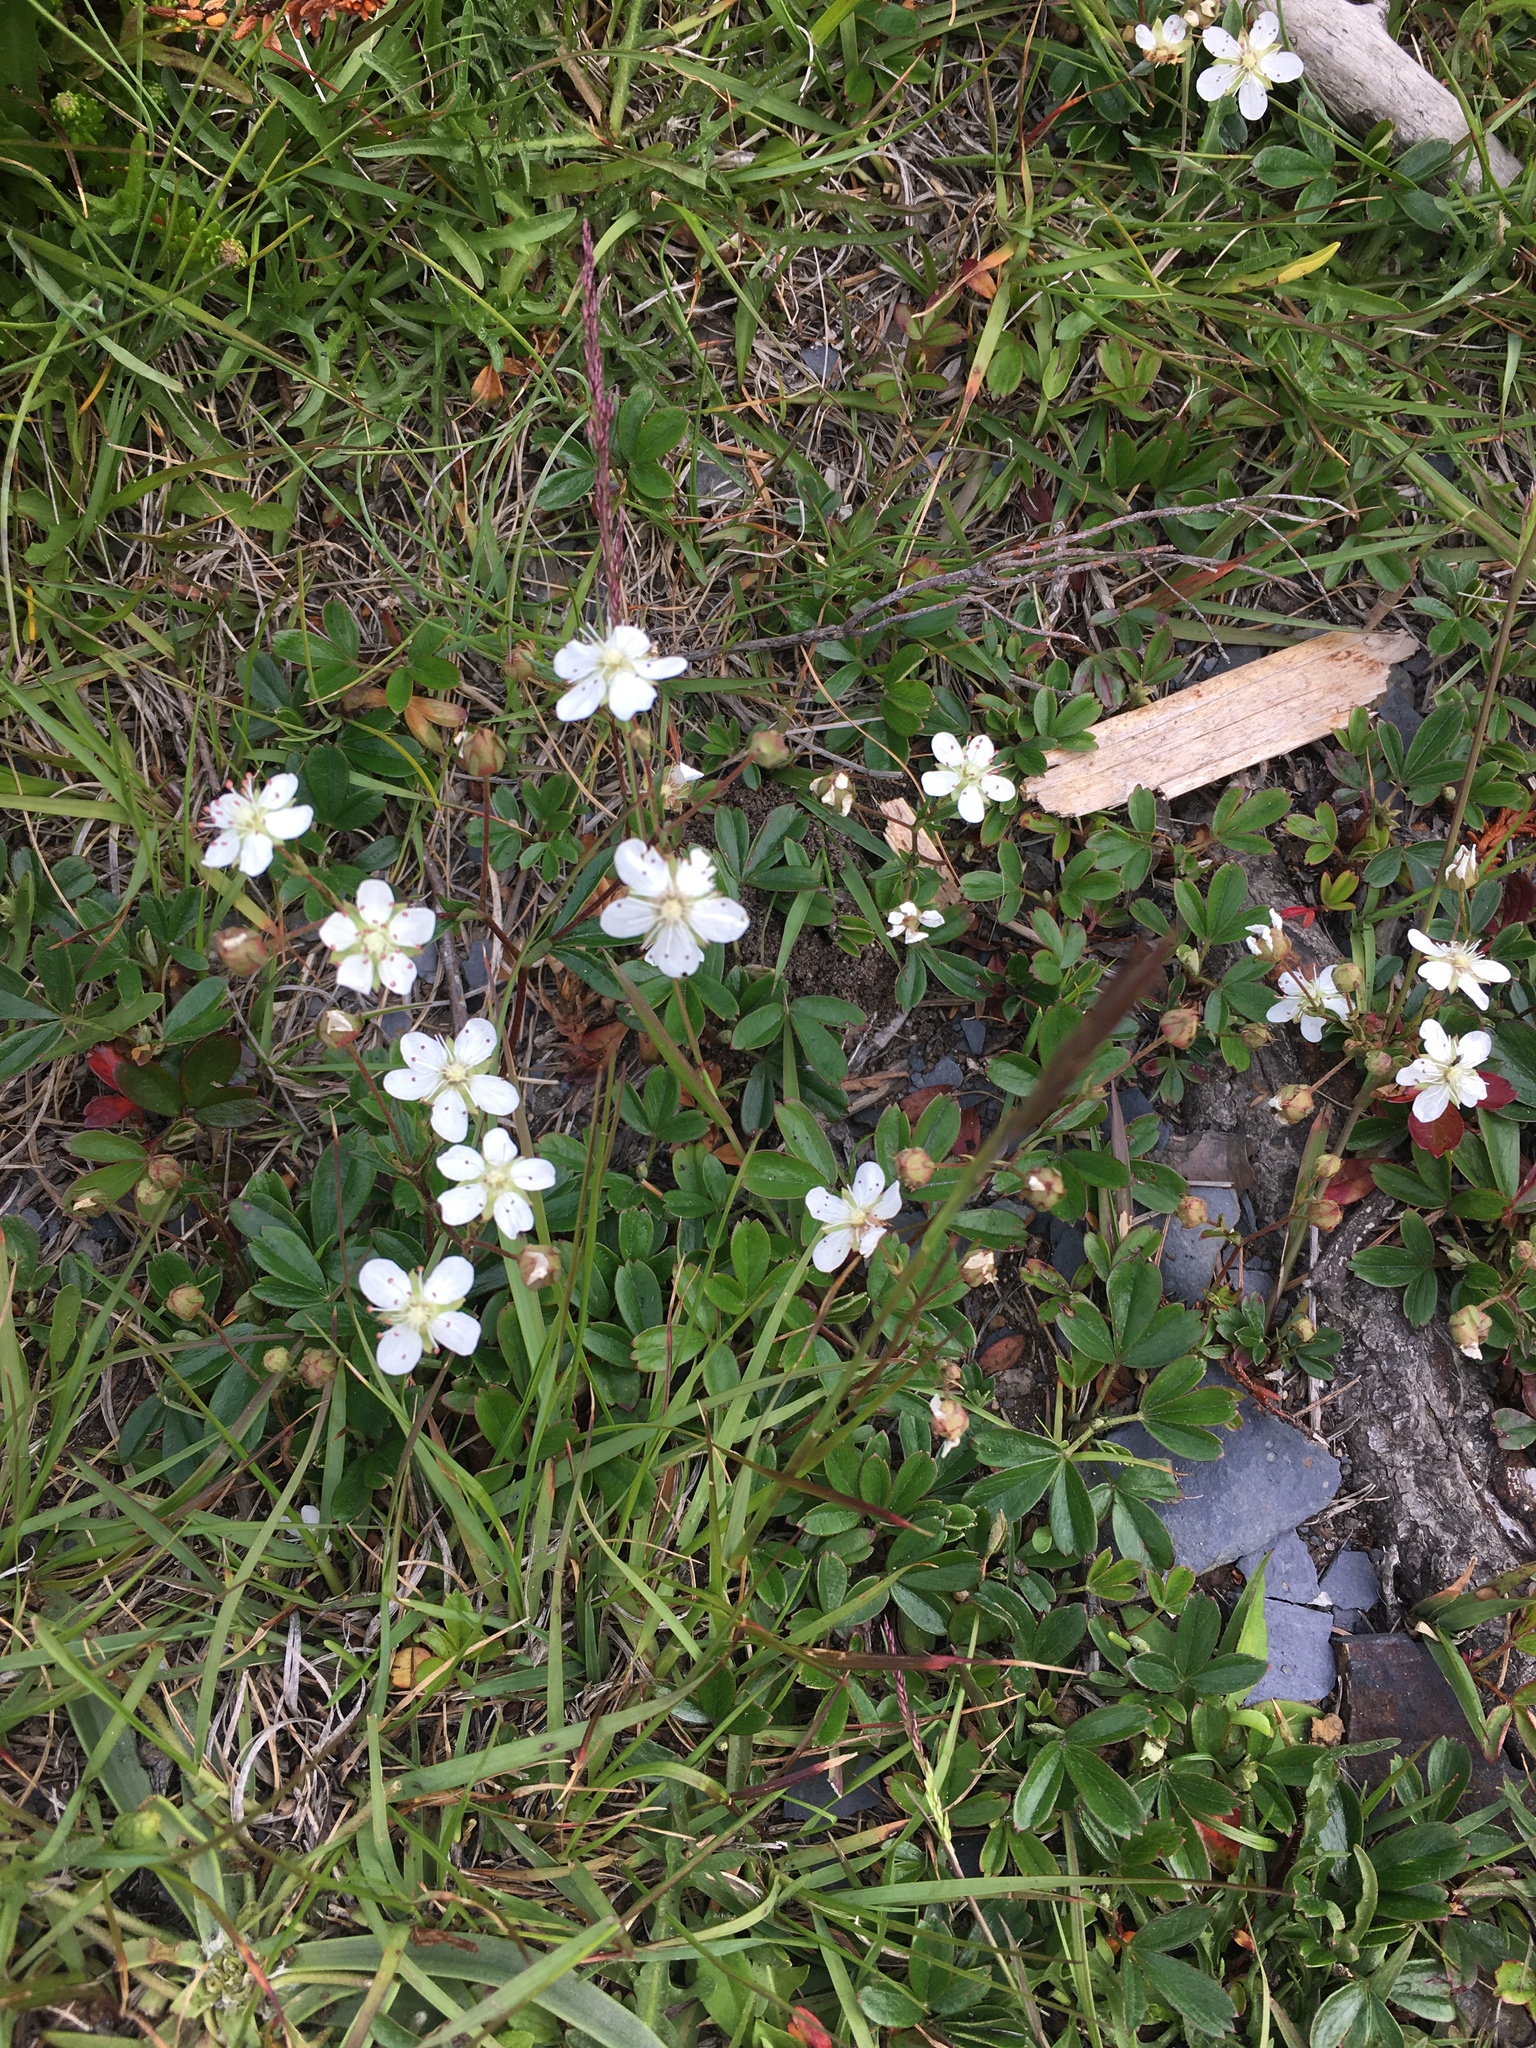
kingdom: Plantae
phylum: Tracheophyta
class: Magnoliopsida
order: Rosales
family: Rosaceae
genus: Sibbaldia
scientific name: Sibbaldia tridentata
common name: Three-toothed cinquefoil
